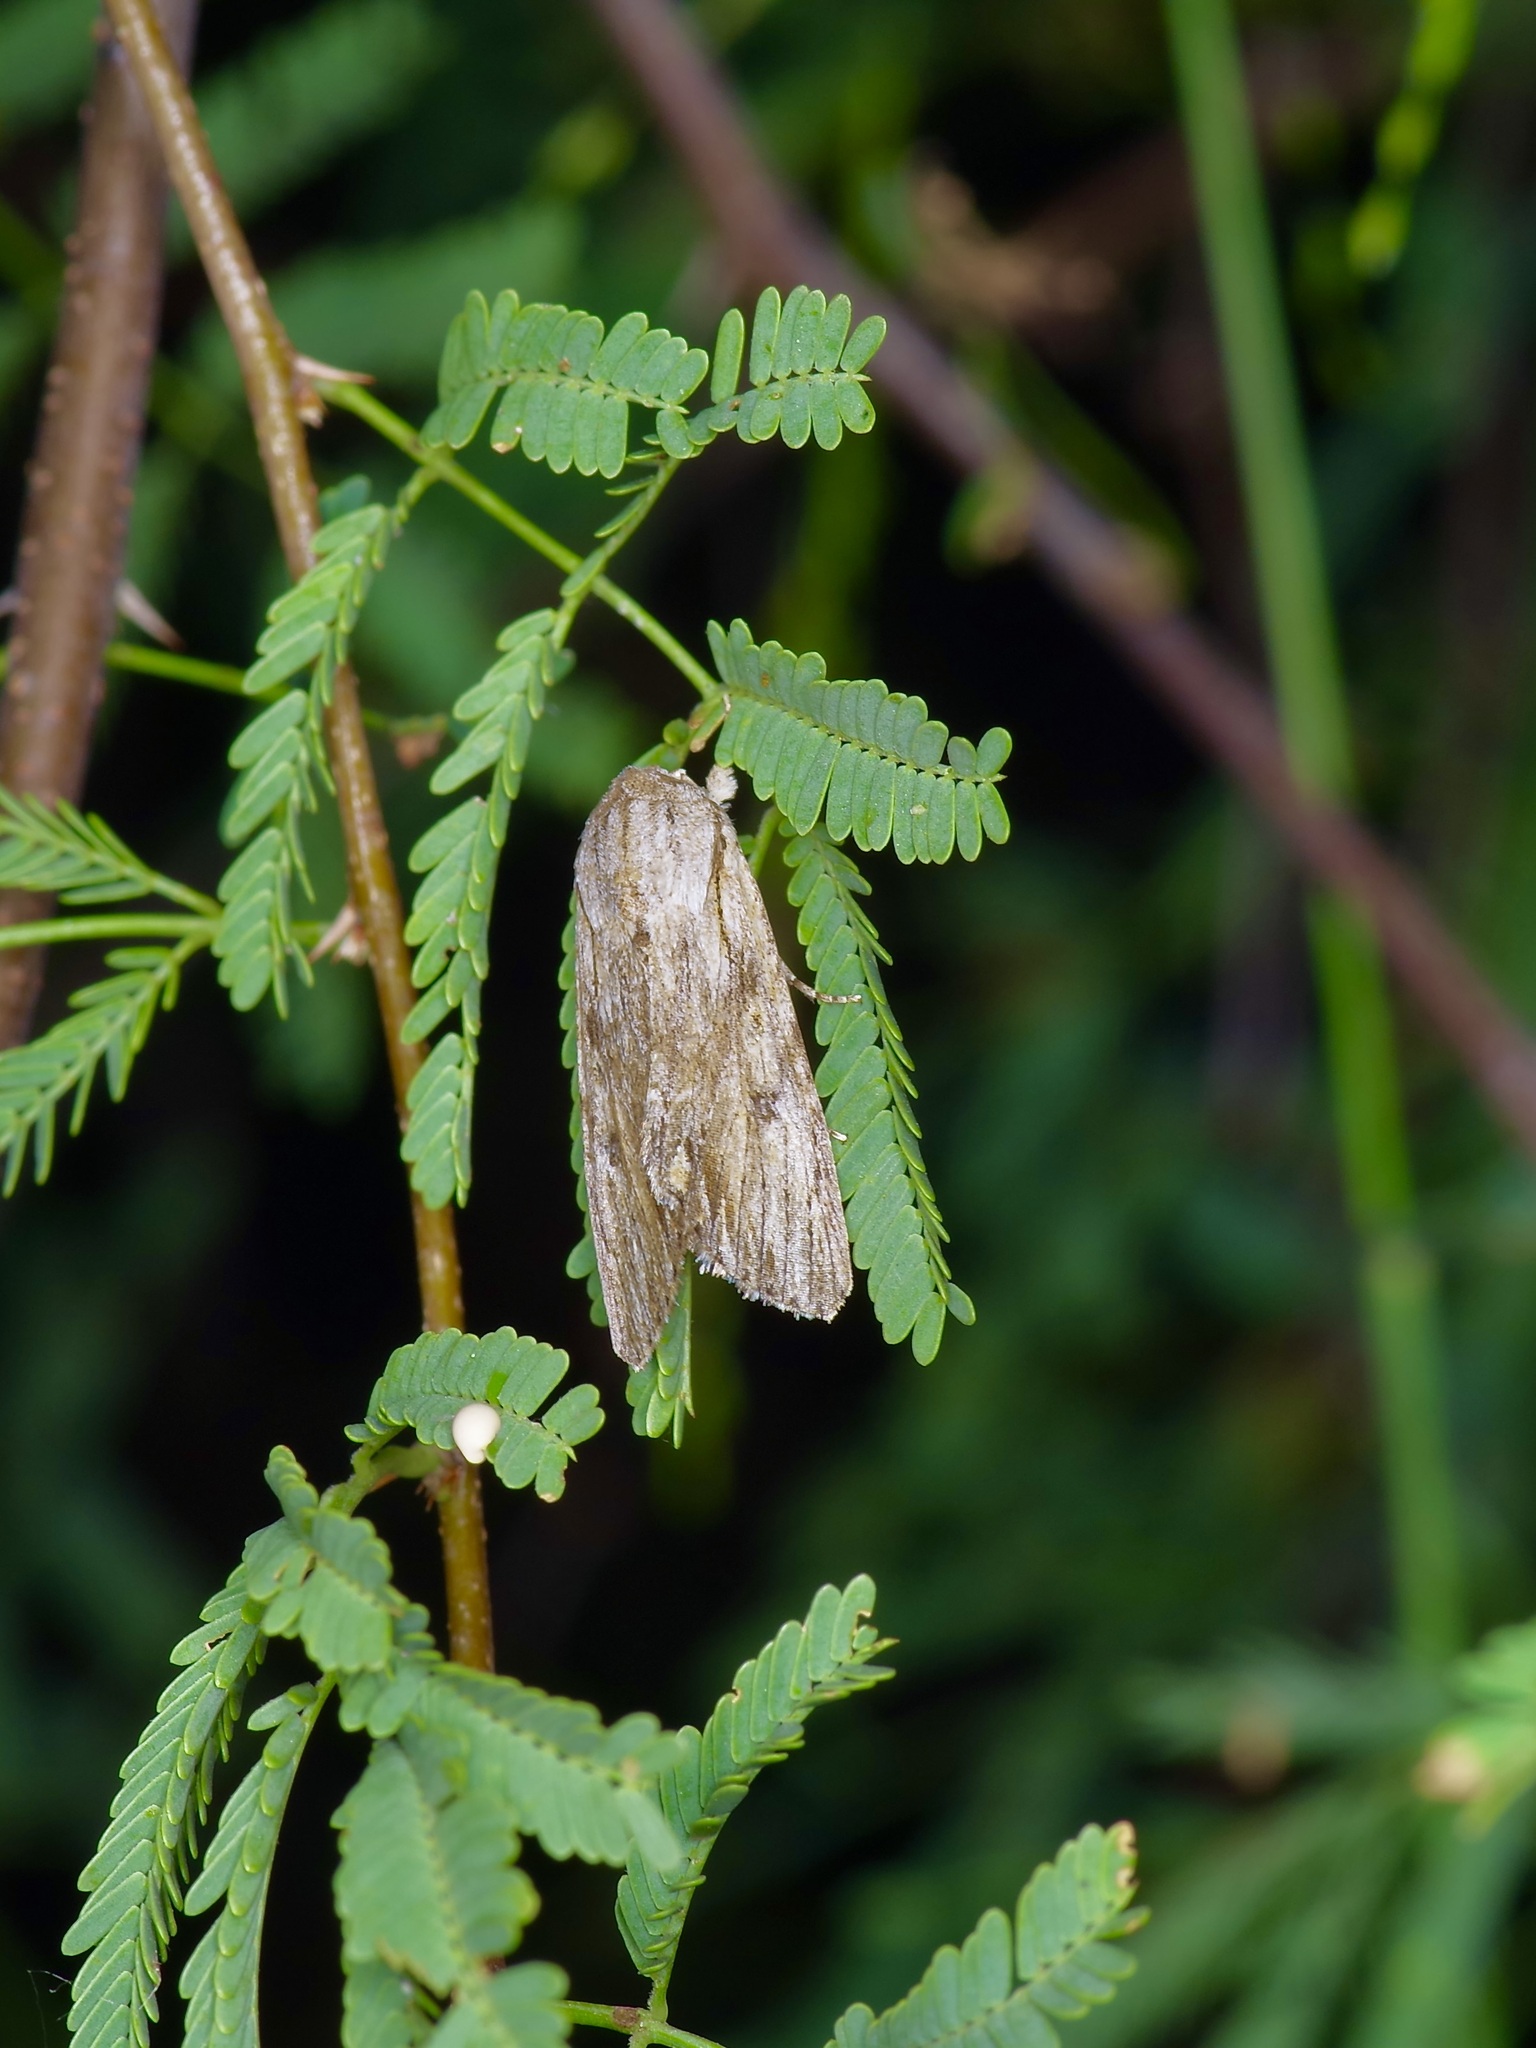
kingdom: Animalia
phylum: Arthropoda
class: Insecta
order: Lepidoptera
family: Noctuidae
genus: Spodoptera
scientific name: Spodoptera eridania
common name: Southern army worm
